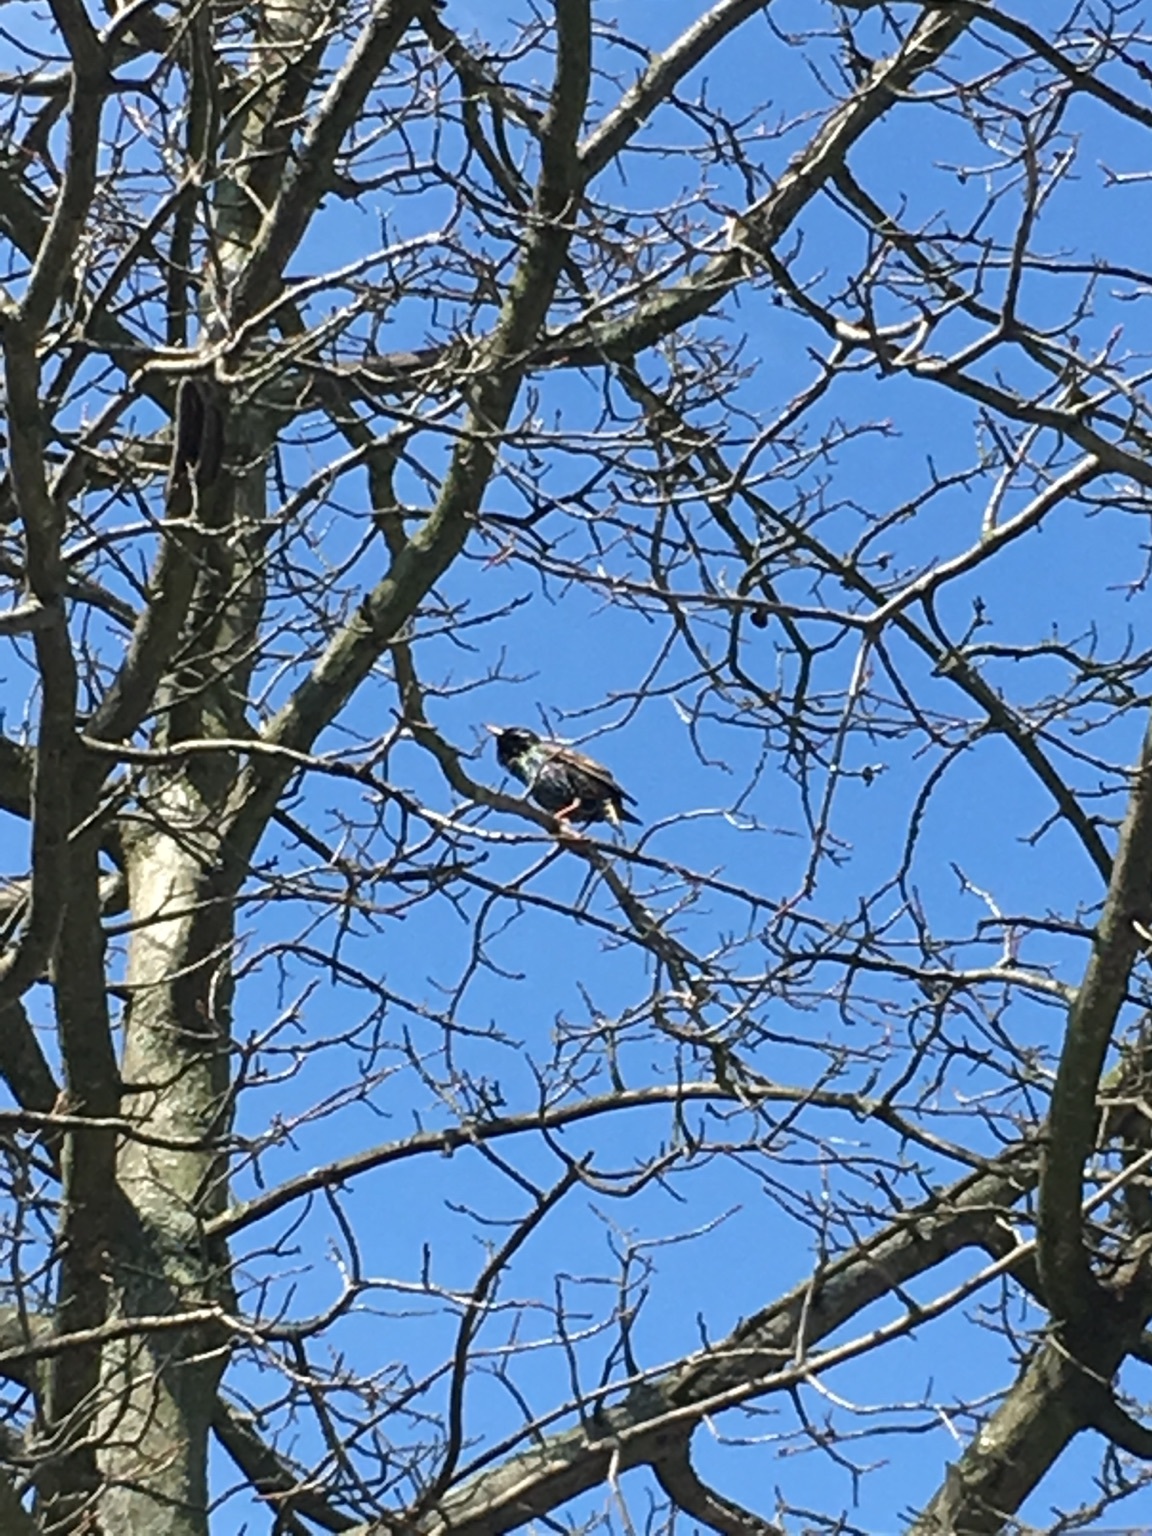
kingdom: Animalia
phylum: Chordata
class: Aves
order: Passeriformes
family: Sturnidae
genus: Sturnus
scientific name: Sturnus vulgaris
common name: Common starling
